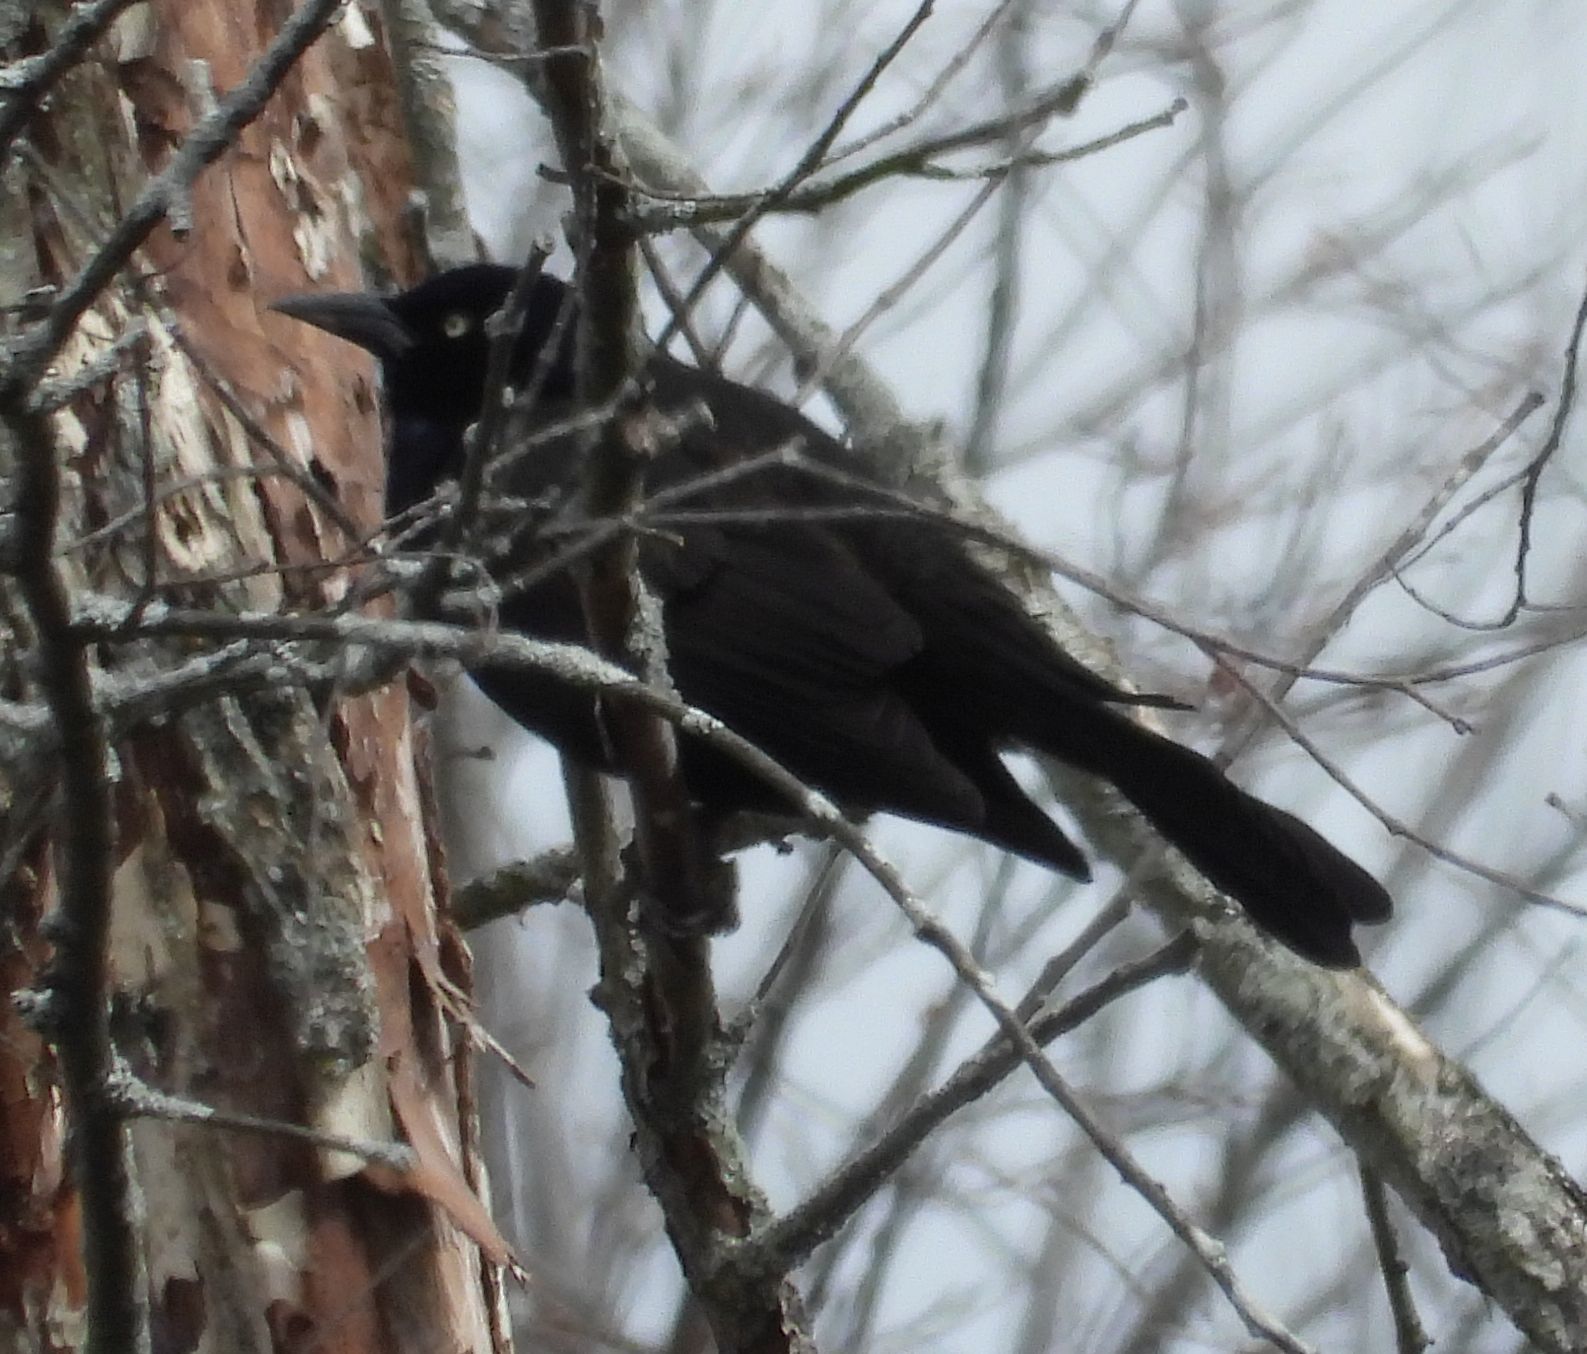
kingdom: Animalia
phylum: Chordata
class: Aves
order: Passeriformes
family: Icteridae
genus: Quiscalus
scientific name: Quiscalus quiscula
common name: Common grackle
